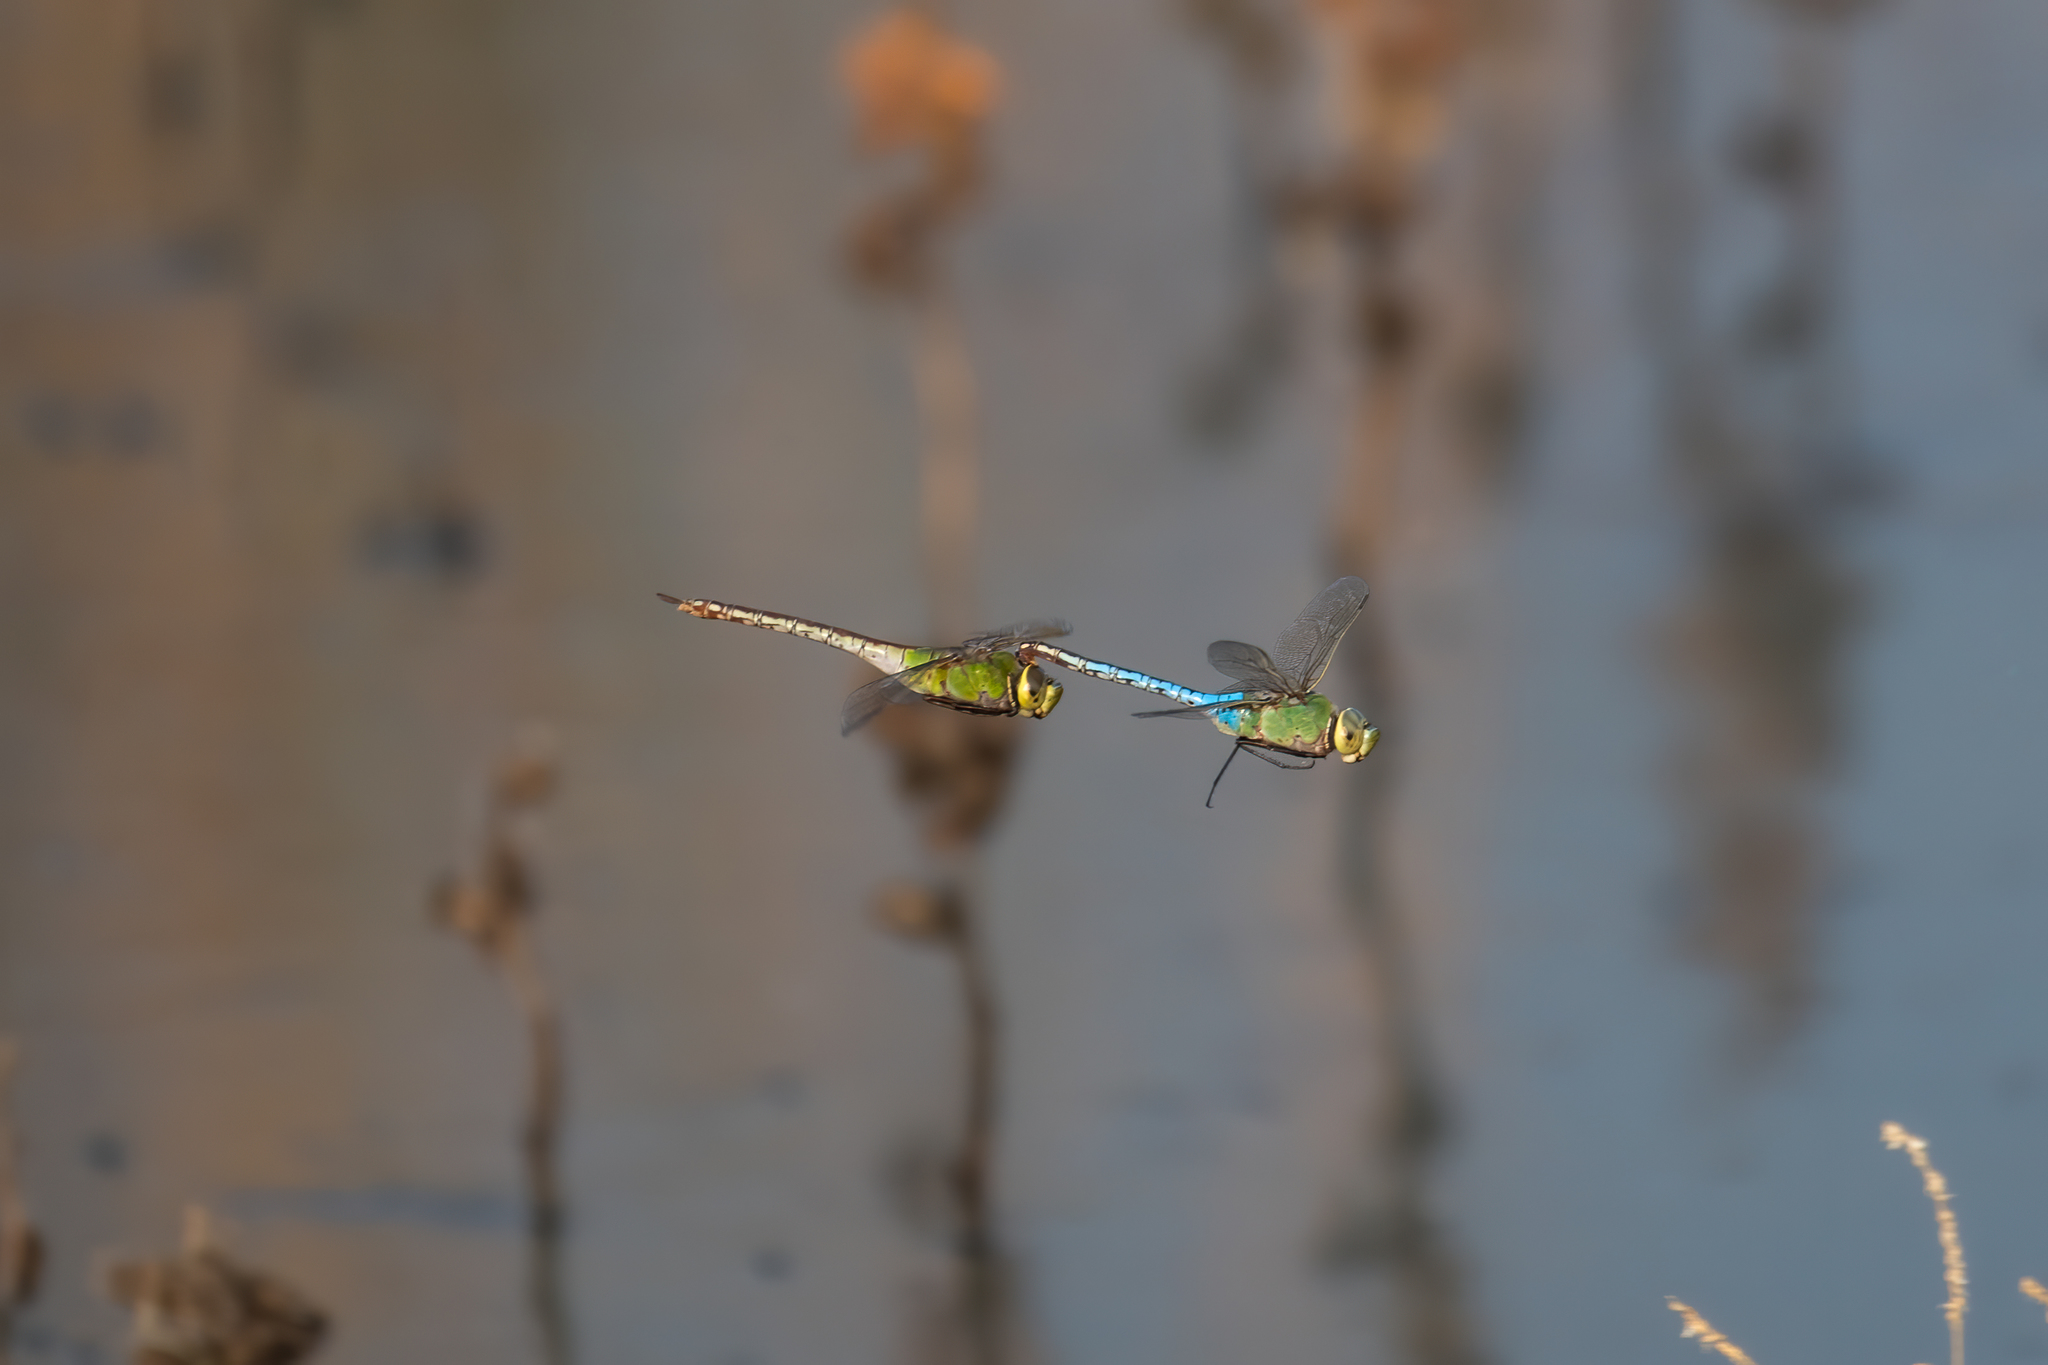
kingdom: Animalia
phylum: Arthropoda
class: Insecta
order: Odonata
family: Aeshnidae
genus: Anax
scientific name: Anax junius
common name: Common green darner
